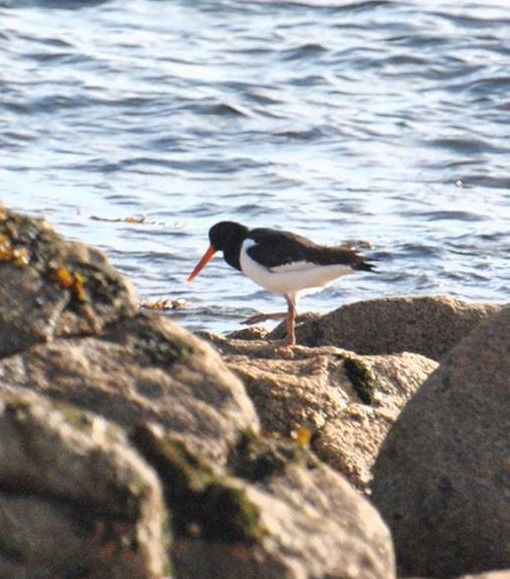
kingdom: Animalia
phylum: Chordata
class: Aves
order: Charadriiformes
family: Haematopodidae
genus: Haematopus
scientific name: Haematopus ostralegus
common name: Eurasian oystercatcher
